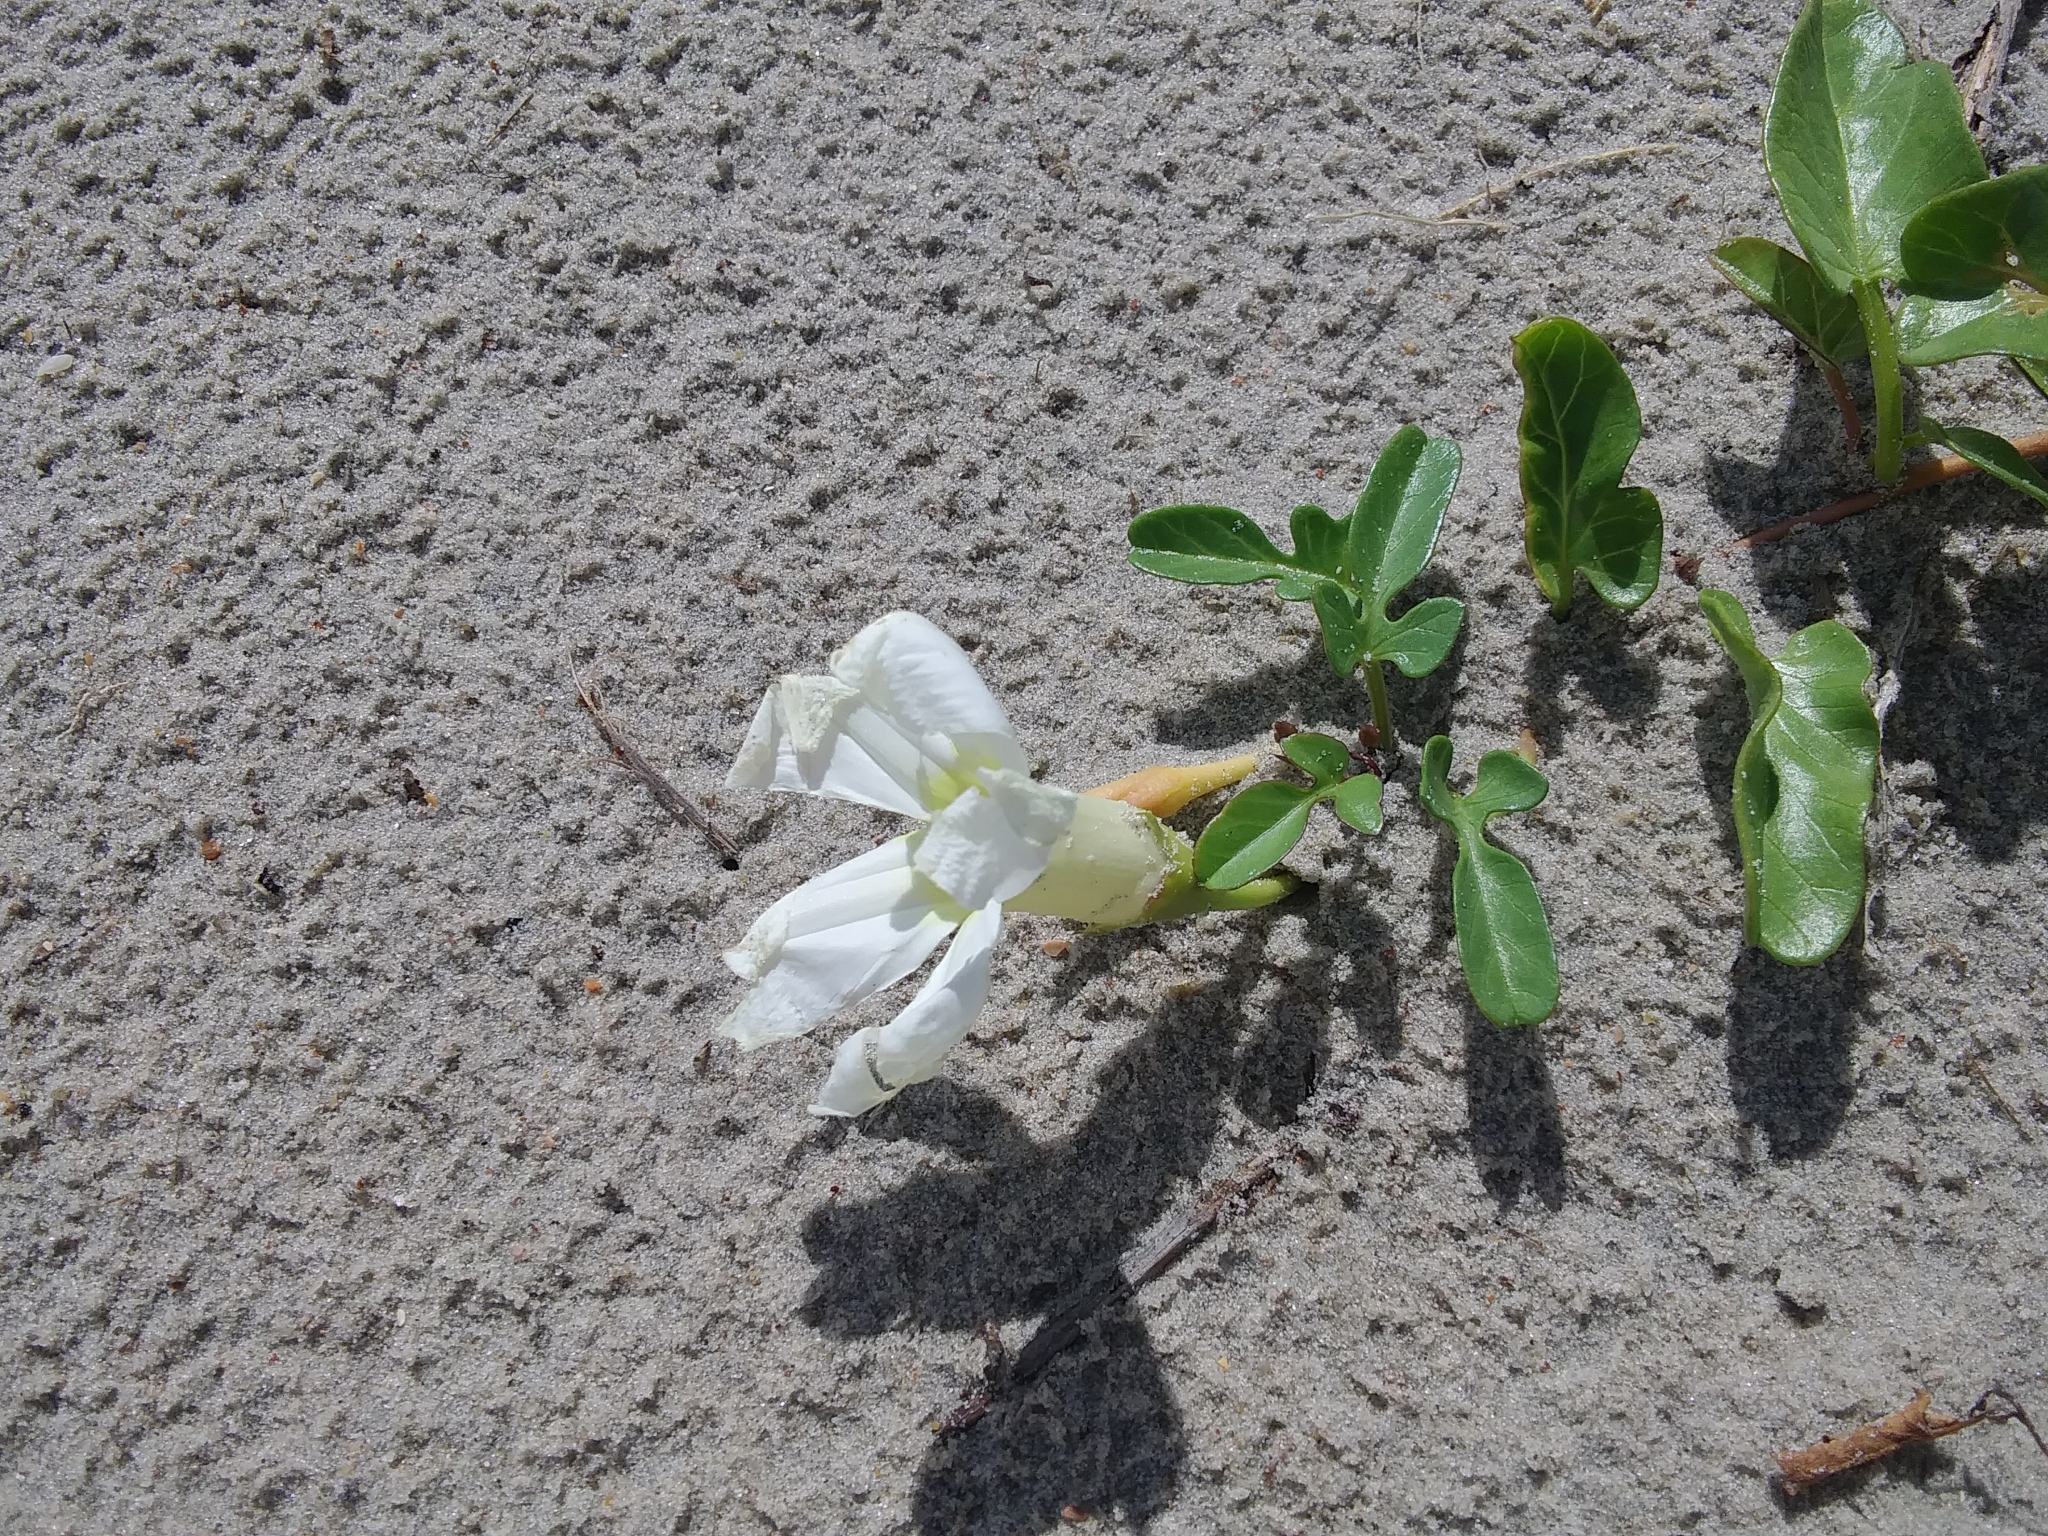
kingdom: Plantae
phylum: Tracheophyta
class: Magnoliopsida
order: Solanales
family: Convolvulaceae
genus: Ipomoea
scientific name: Ipomoea imperati
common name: Fiddle-leaf morning-glory
